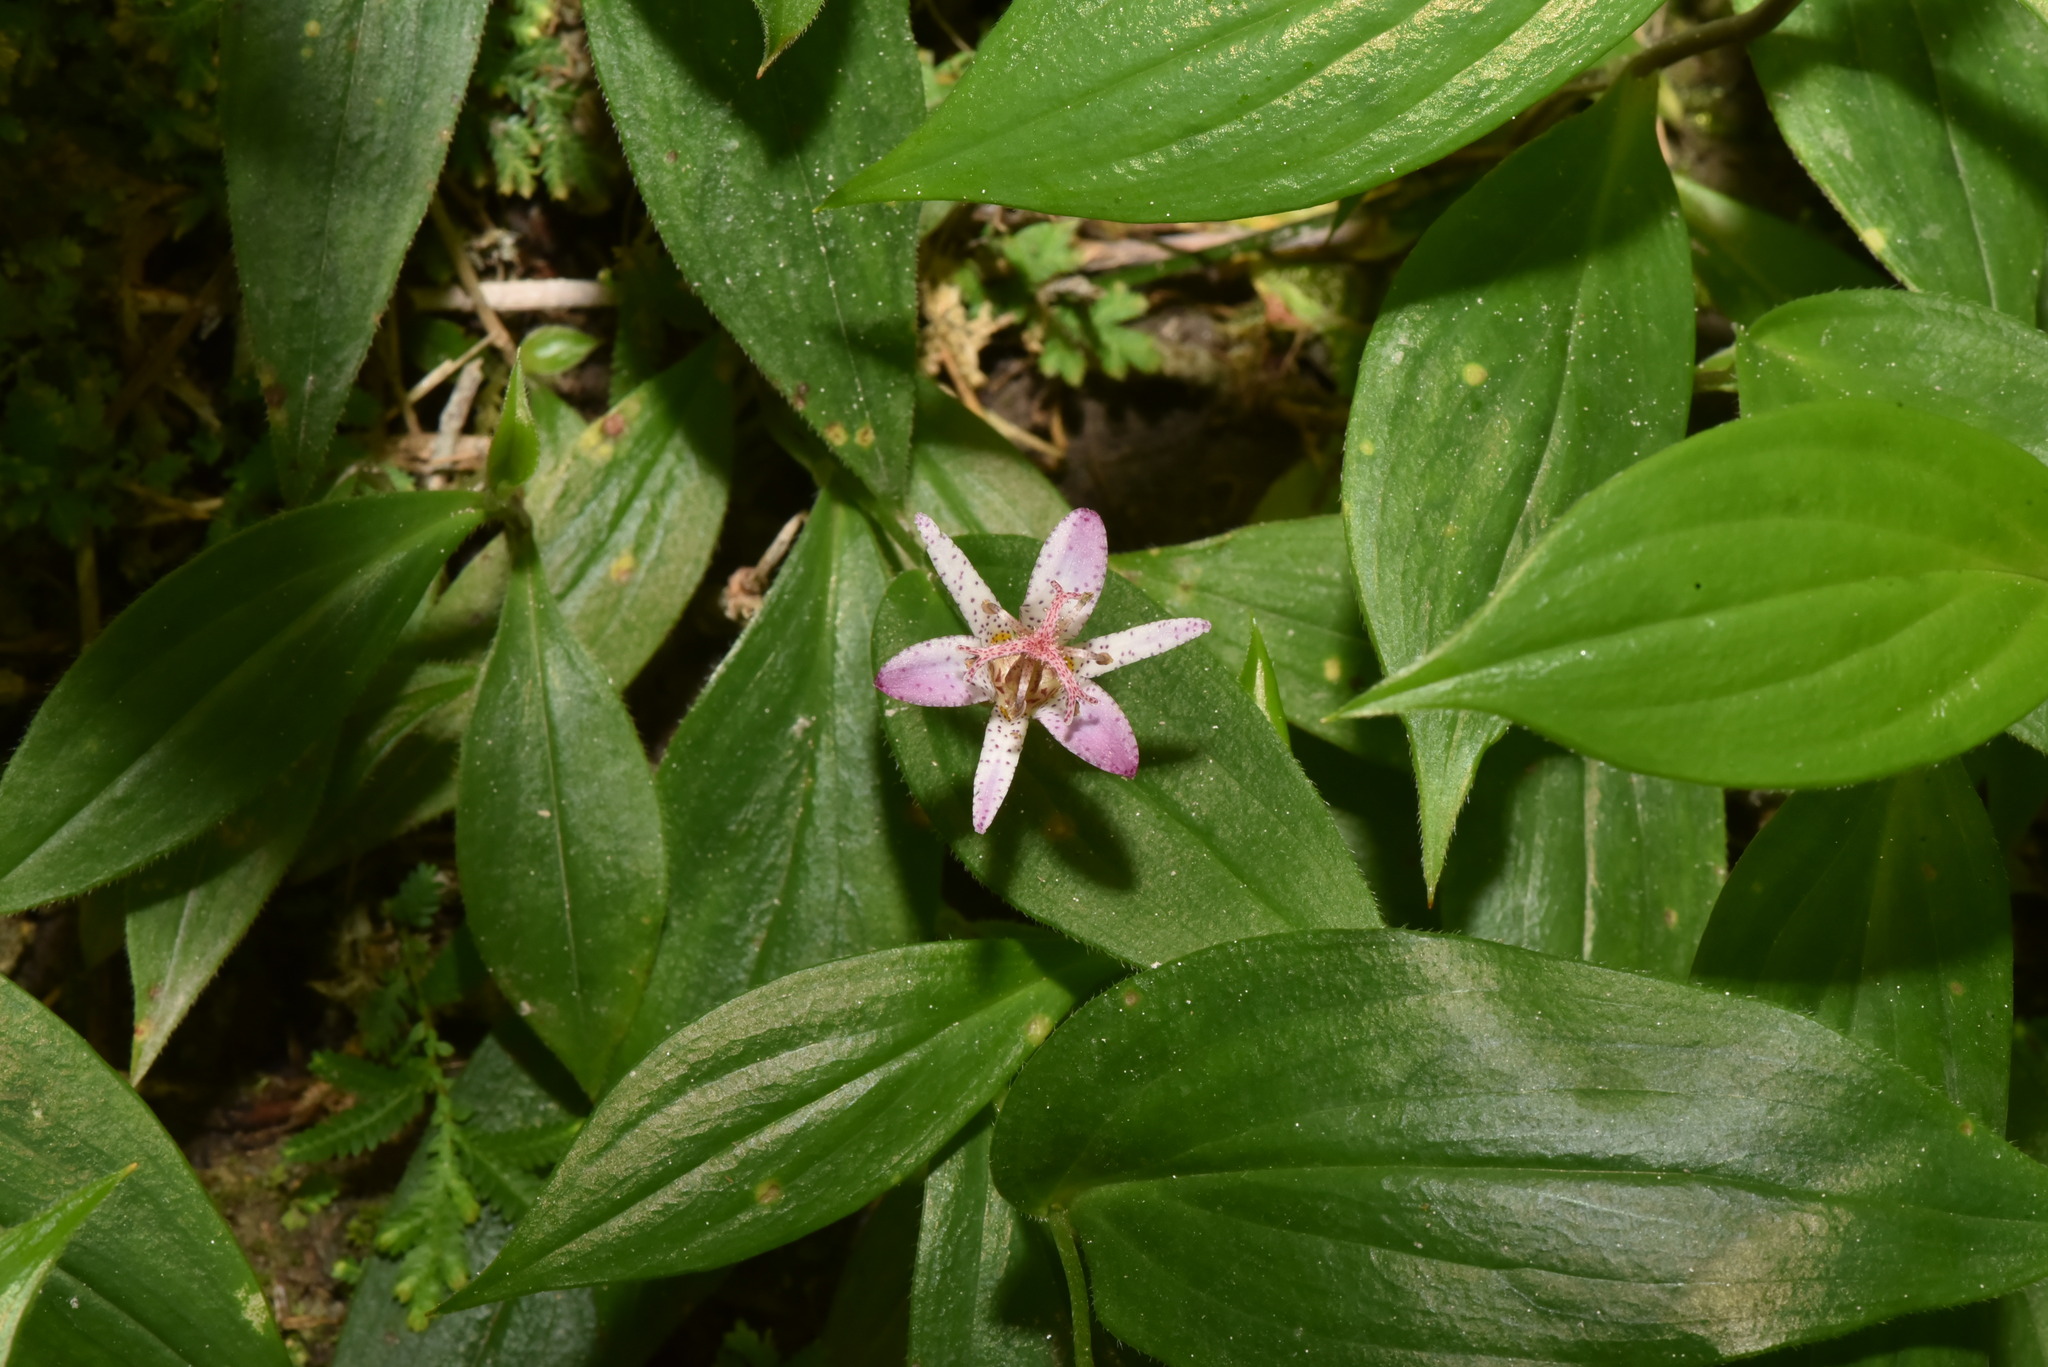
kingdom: Plantae
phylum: Tracheophyta
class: Liliopsida
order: Liliales
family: Liliaceae
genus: Tricyrtis
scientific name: Tricyrtis formosana
